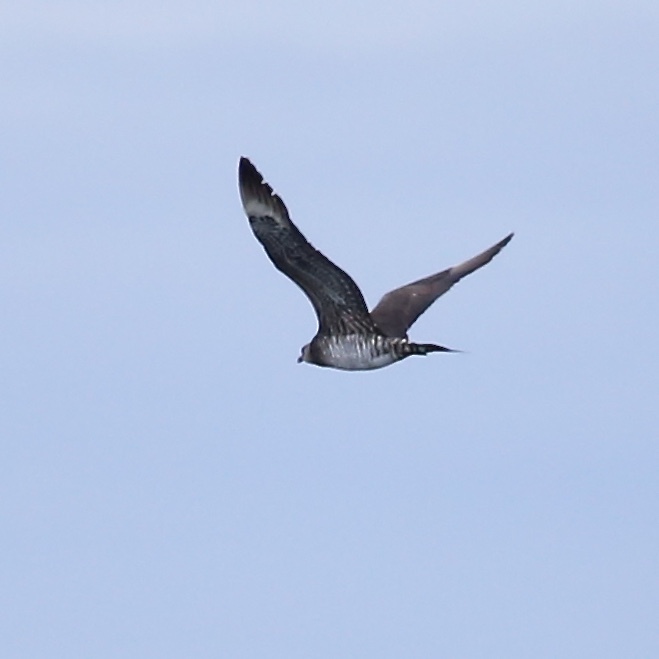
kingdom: Animalia
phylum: Chordata
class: Aves
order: Charadriiformes
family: Stercorariidae
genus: Stercorarius
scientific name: Stercorarius longicaudus
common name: Long-tailed jaeger
